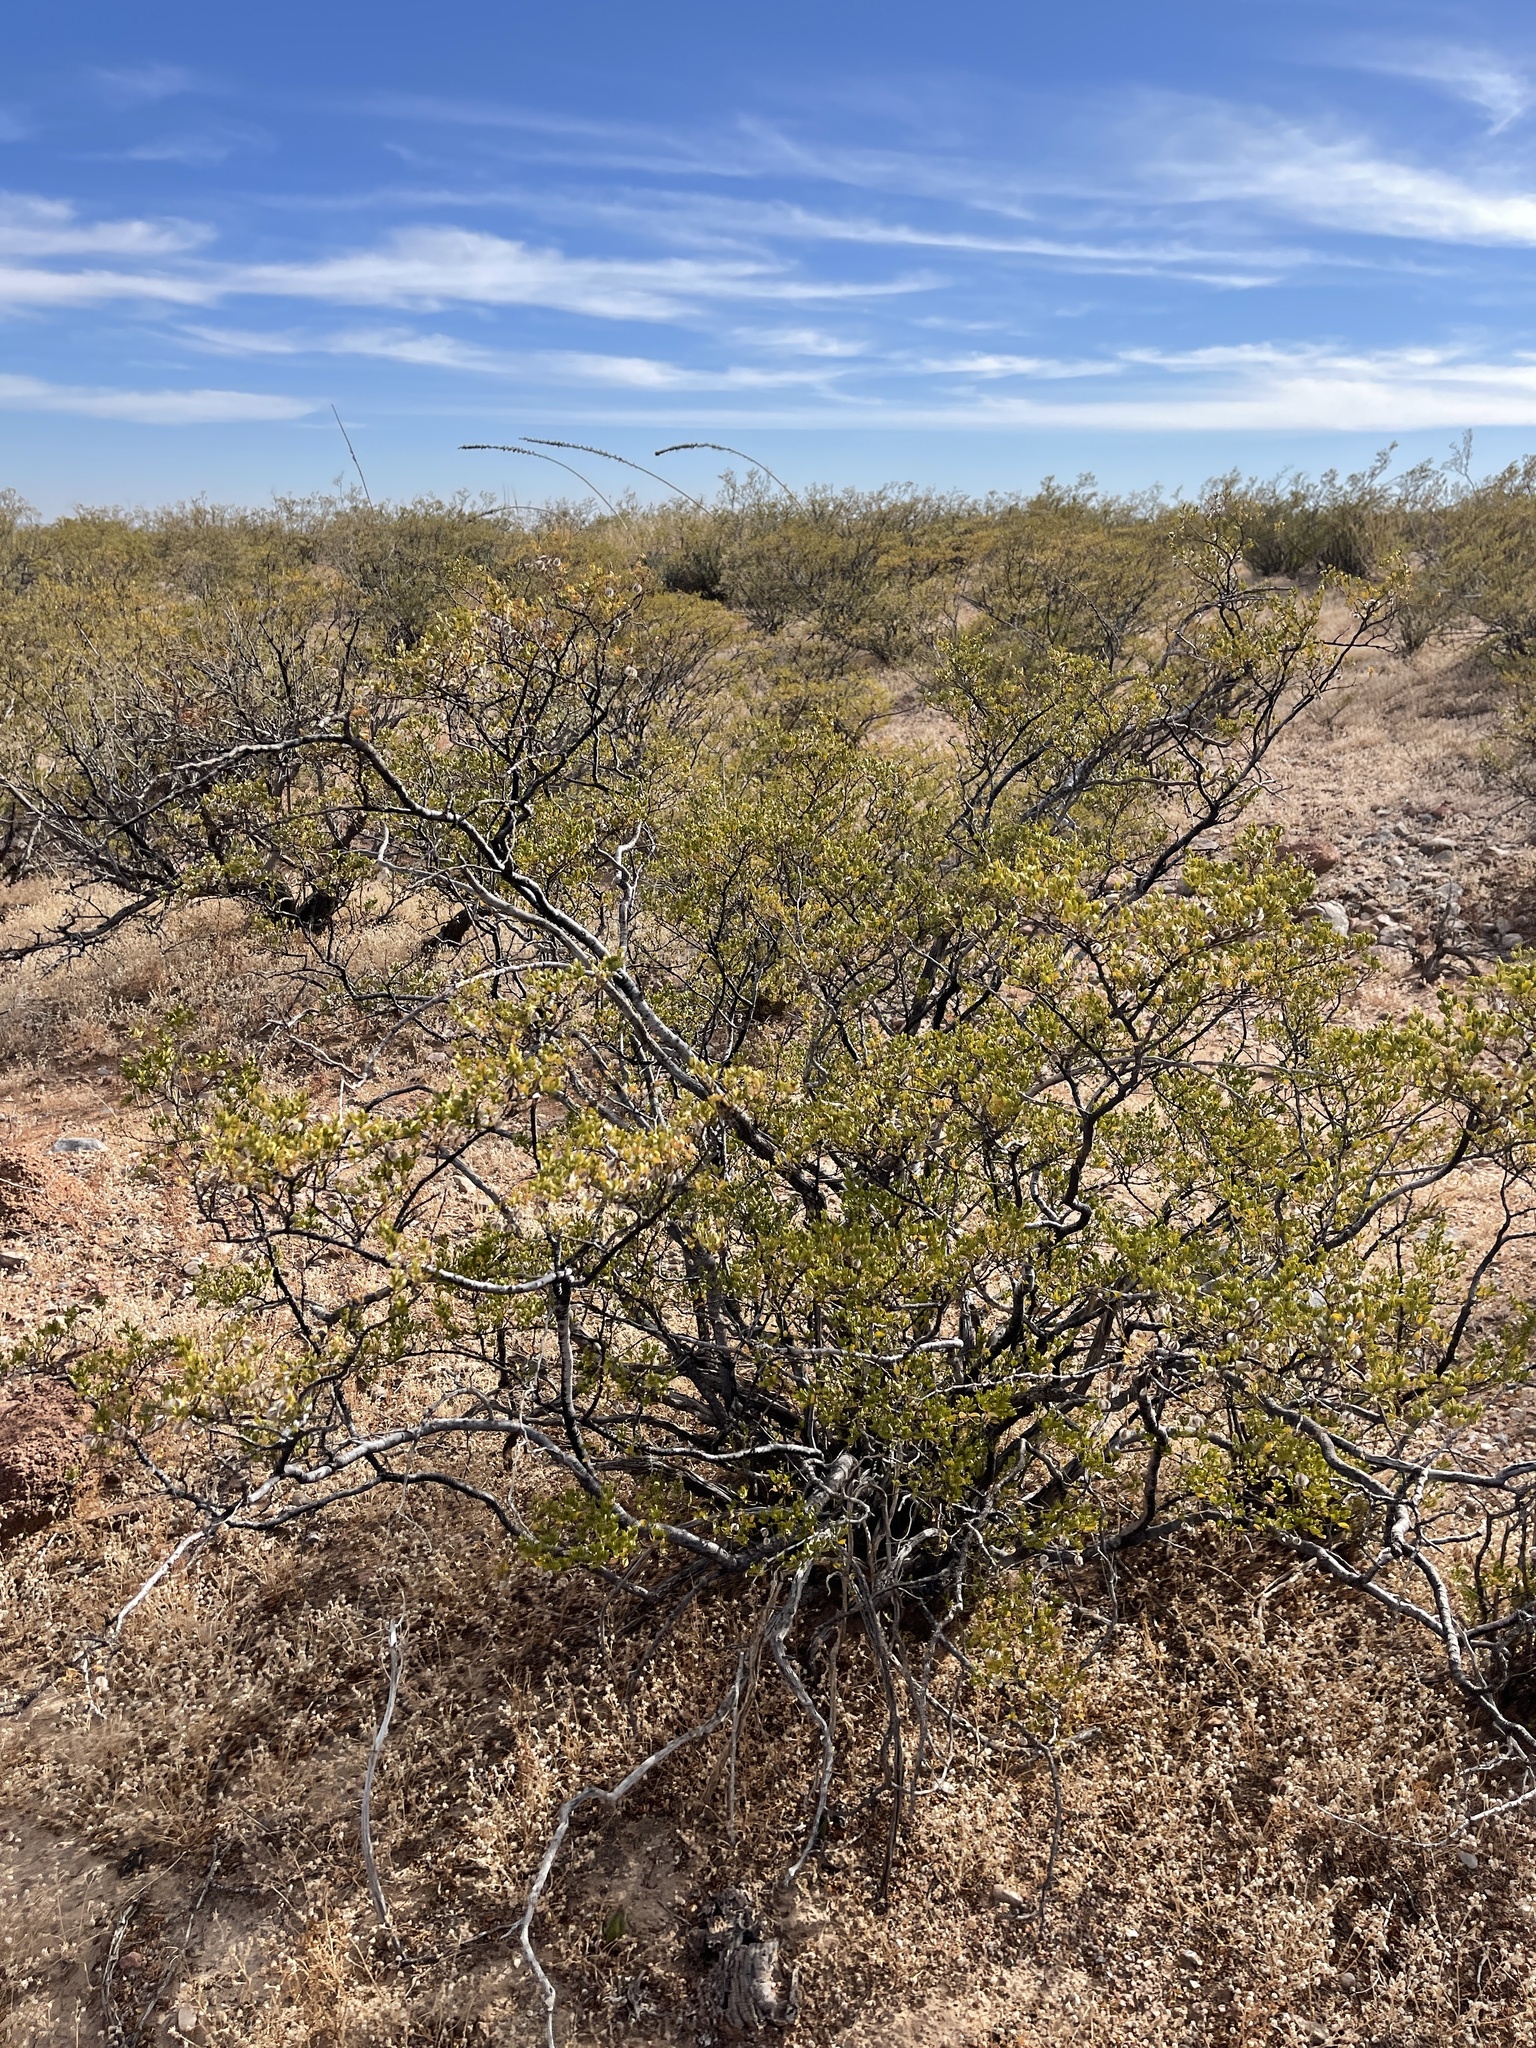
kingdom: Plantae
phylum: Tracheophyta
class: Magnoliopsida
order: Zygophyllales
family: Zygophyllaceae
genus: Larrea
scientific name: Larrea tridentata
